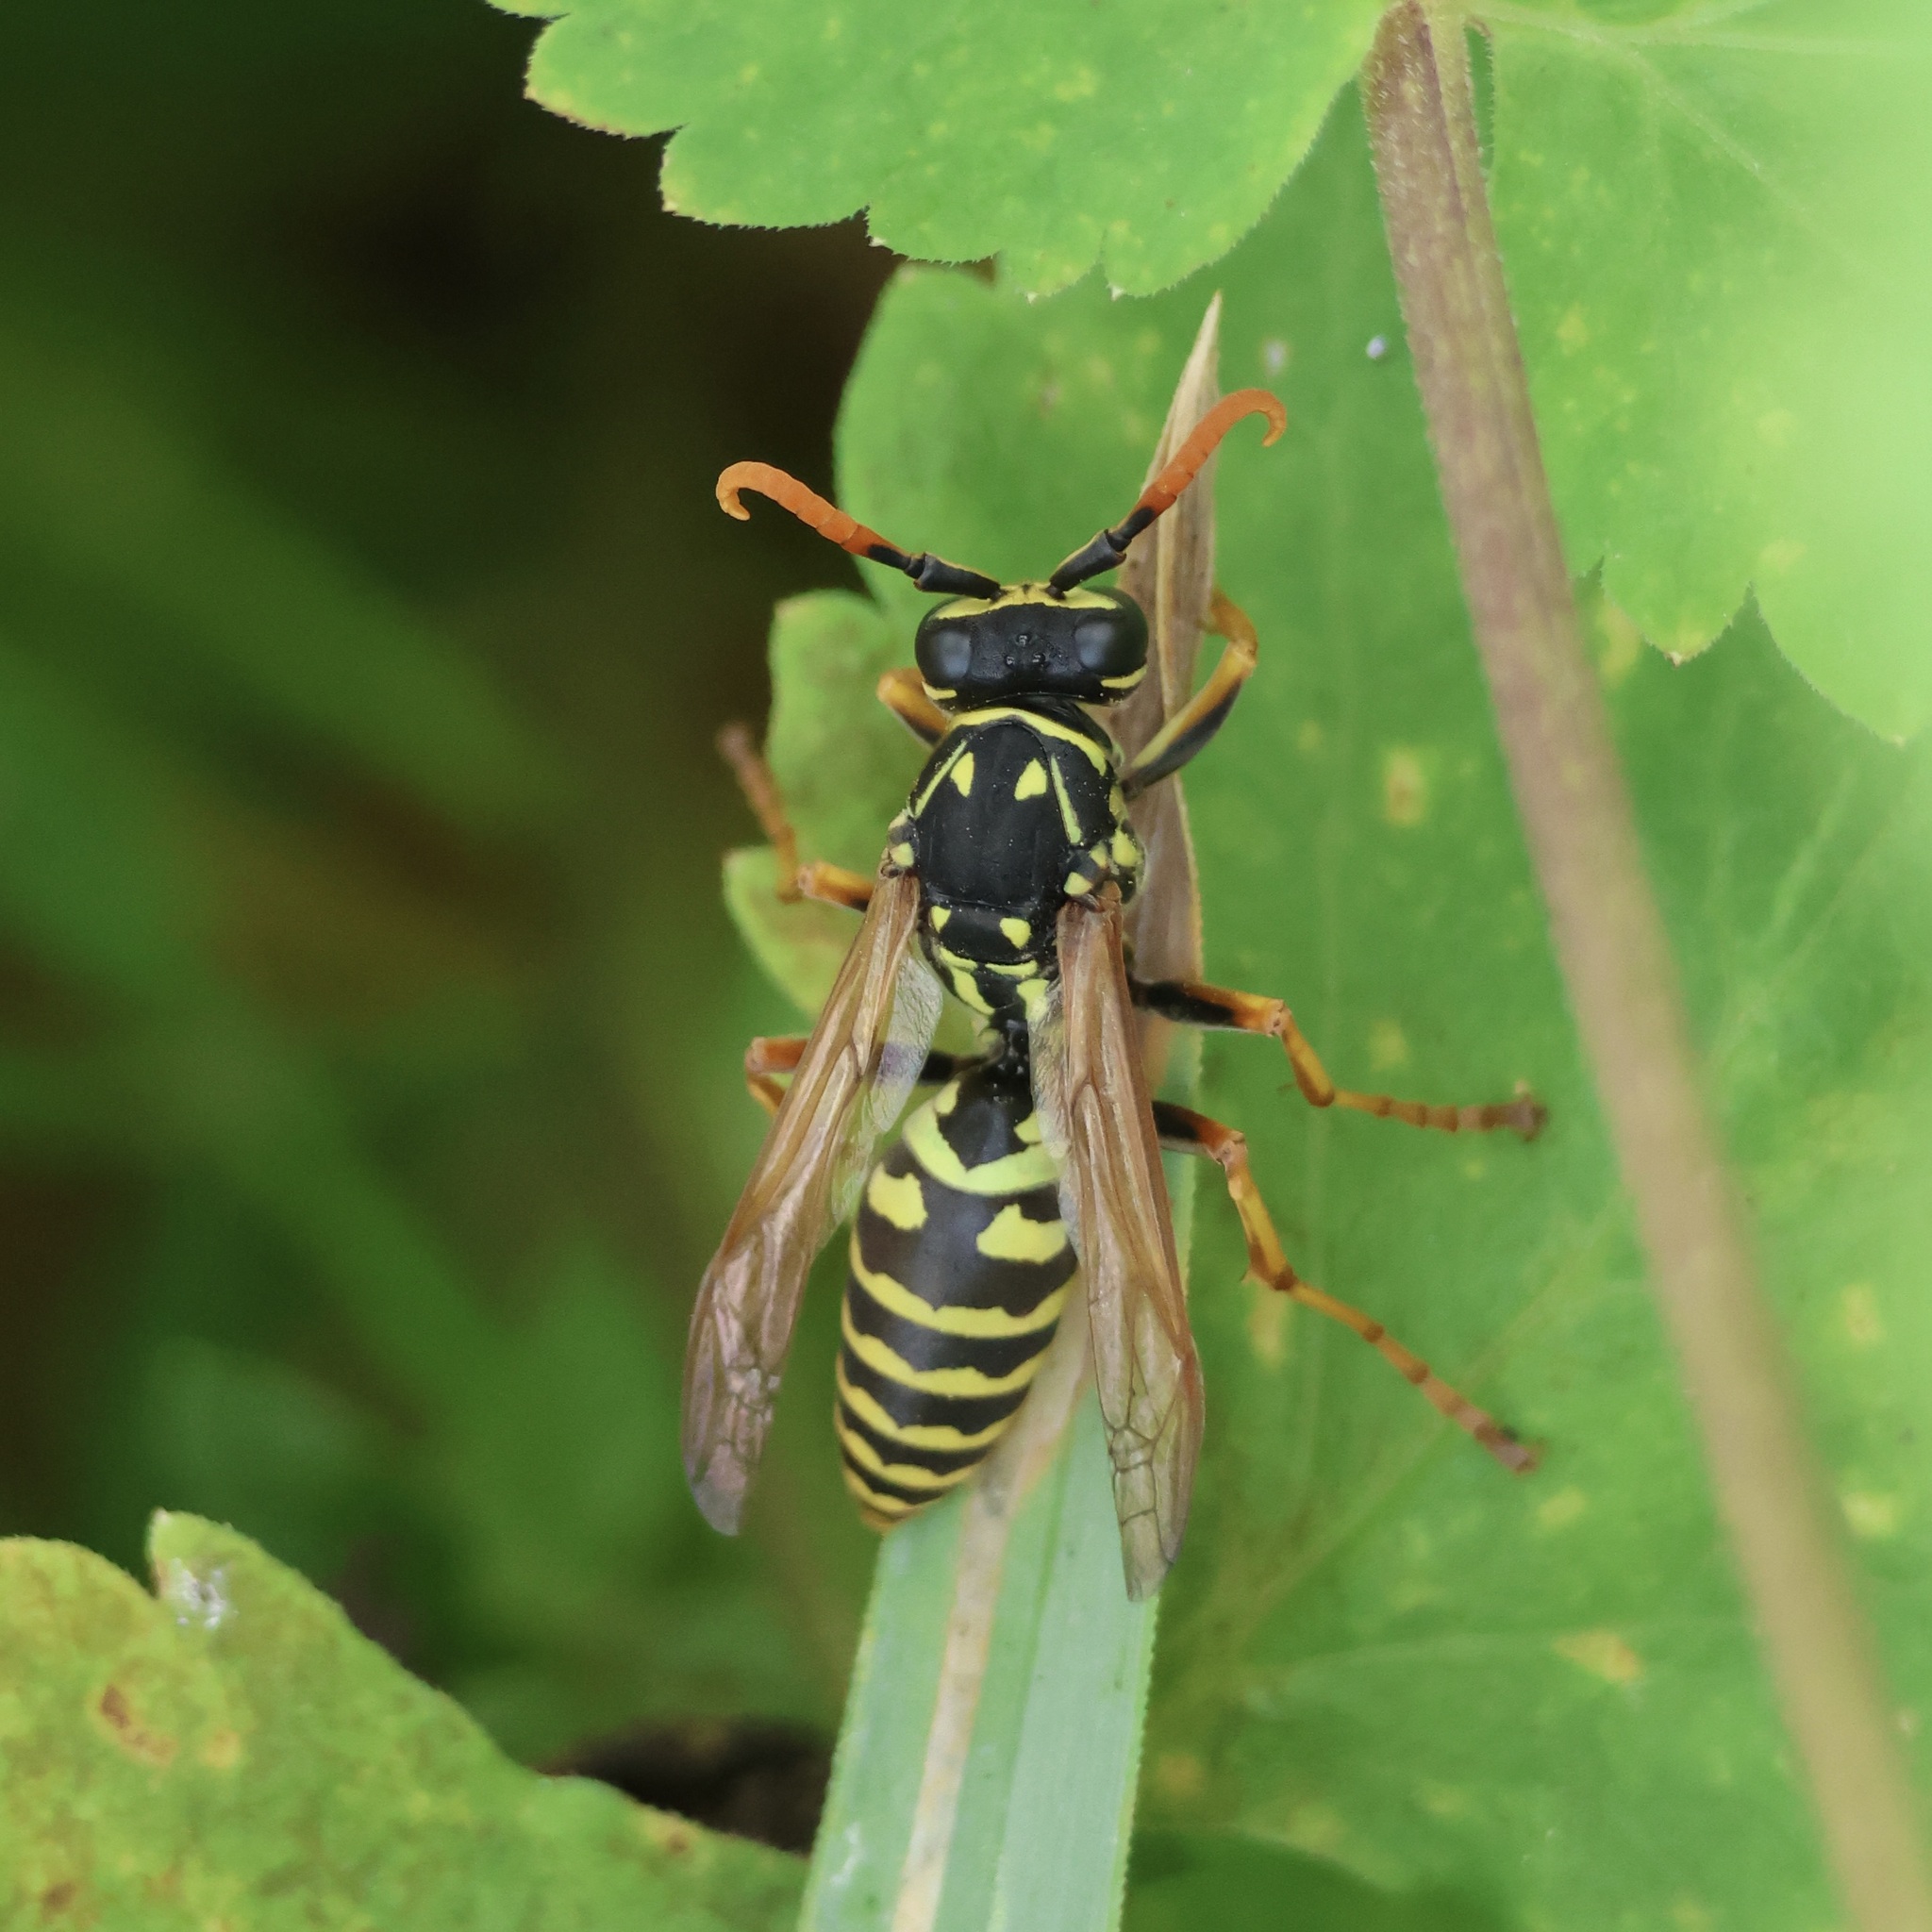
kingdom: Animalia
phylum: Arthropoda
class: Insecta
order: Hymenoptera
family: Eumenidae
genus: Polistes
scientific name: Polistes dominula
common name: Paper wasp
